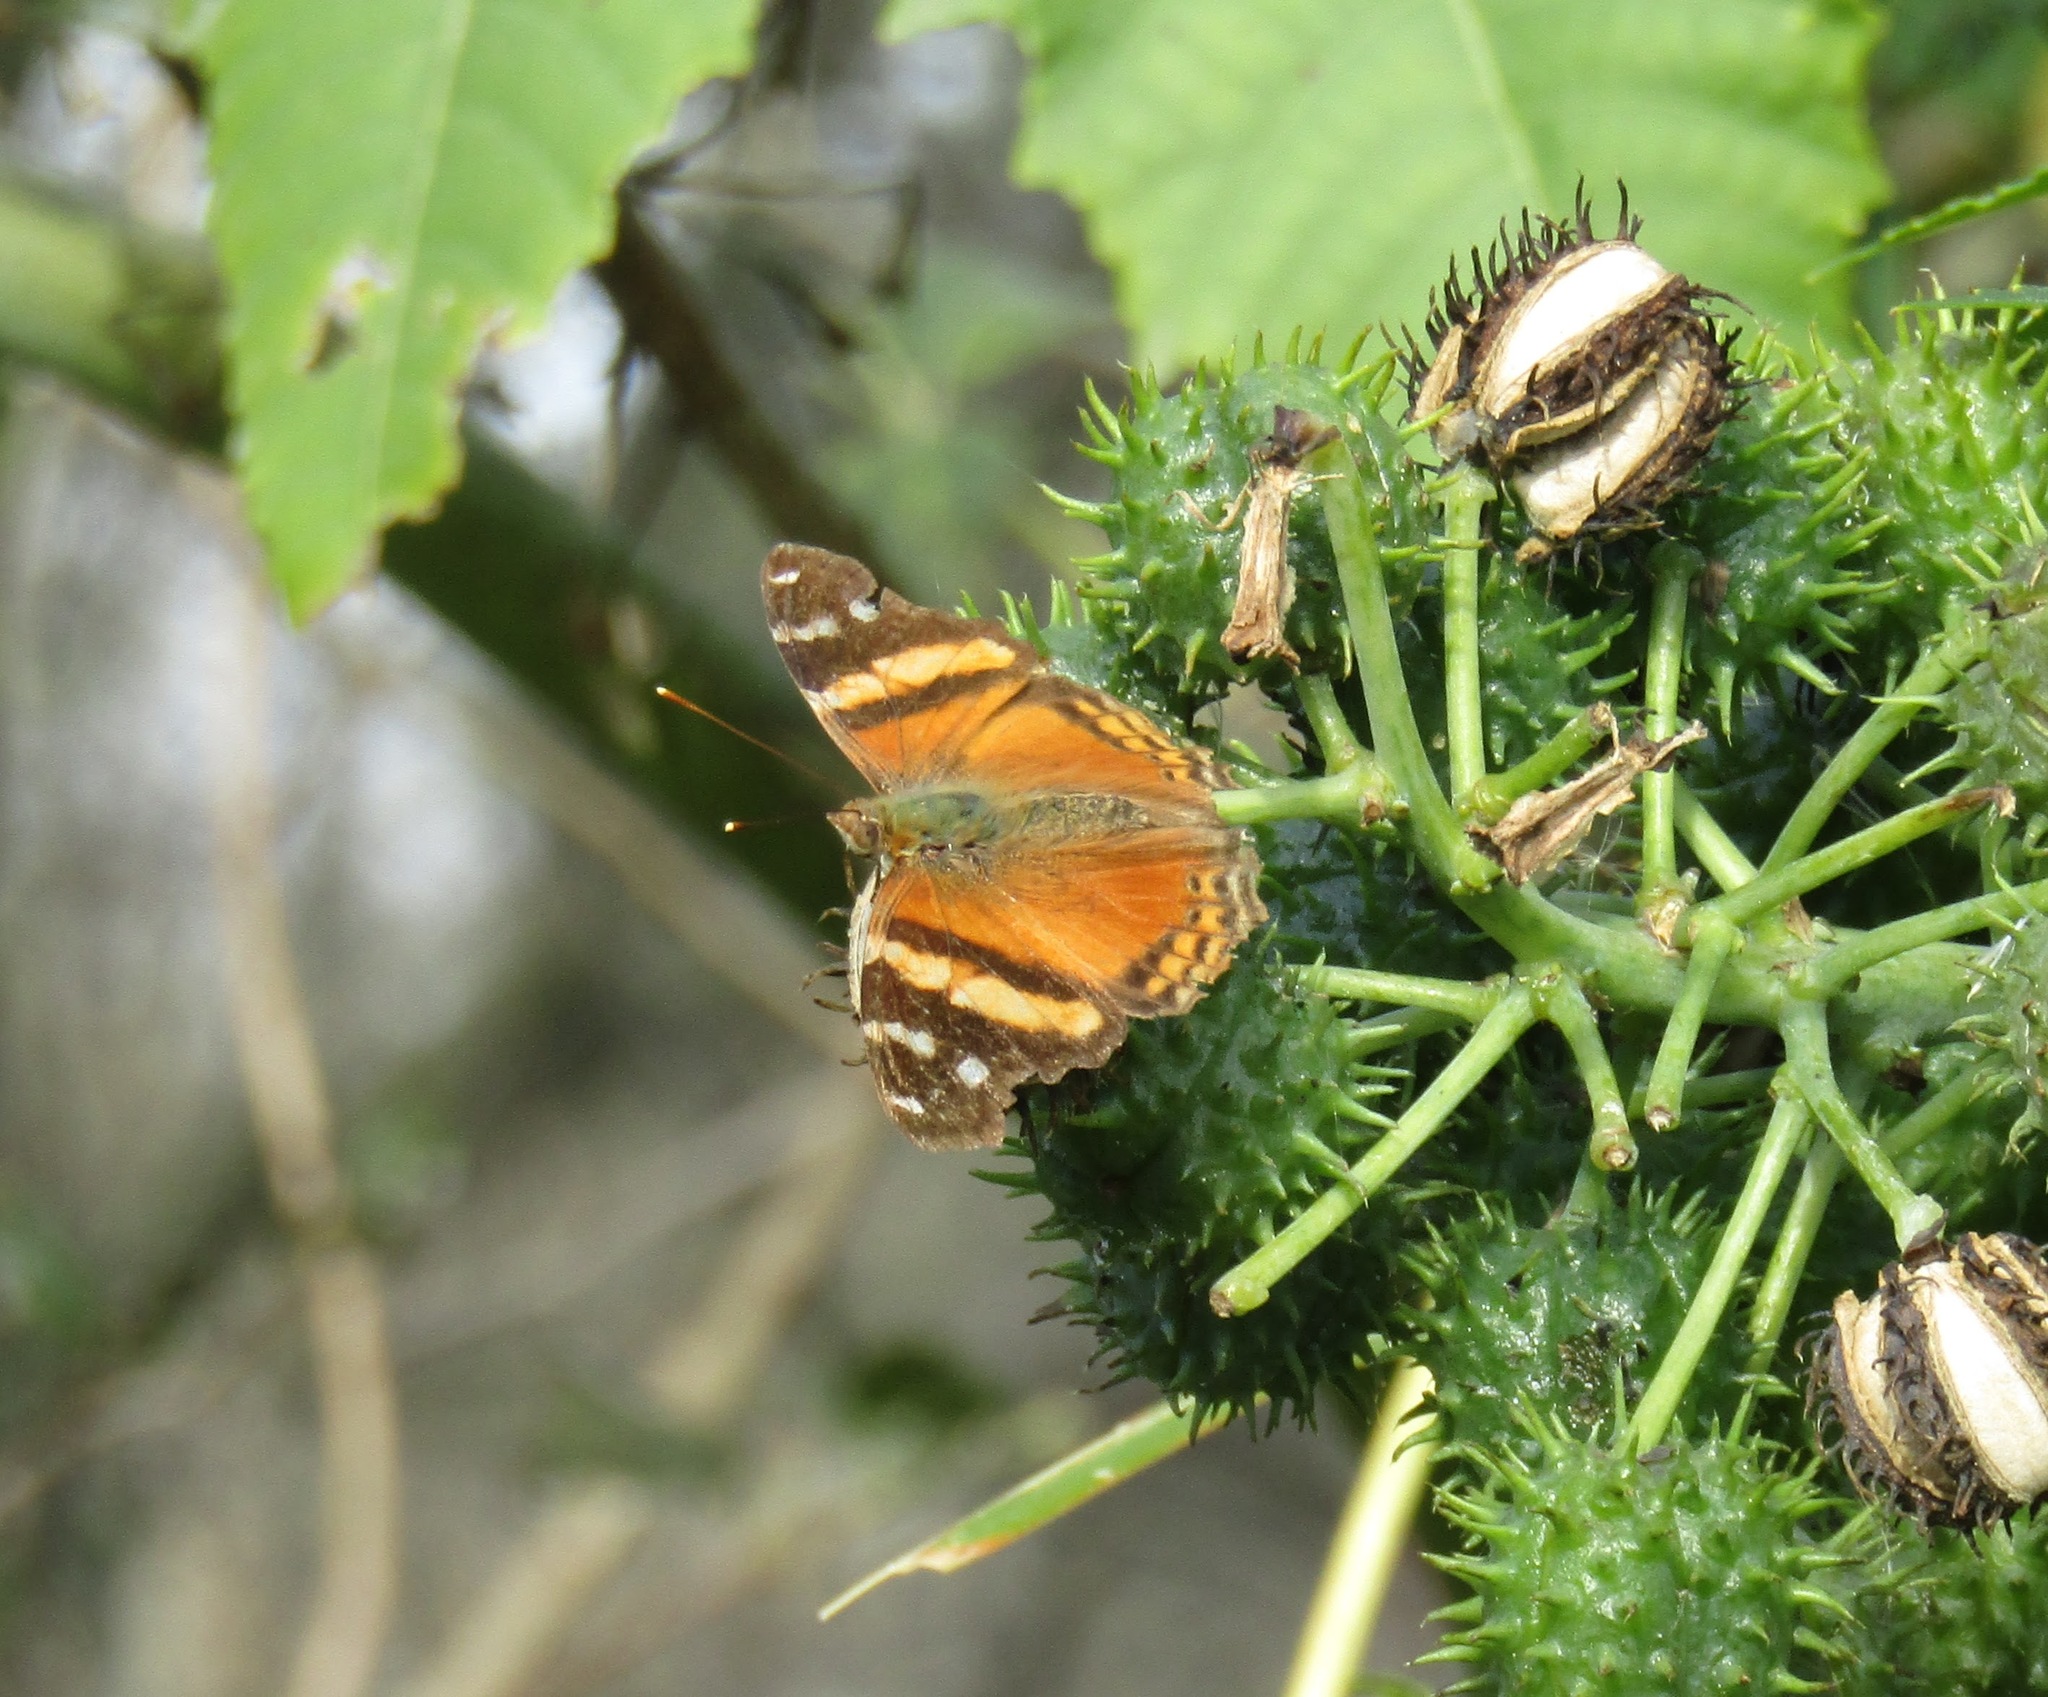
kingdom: Animalia
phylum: Arthropoda
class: Insecta
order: Lepidoptera
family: Nymphalidae
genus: Hypanartia
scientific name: Hypanartia bella
